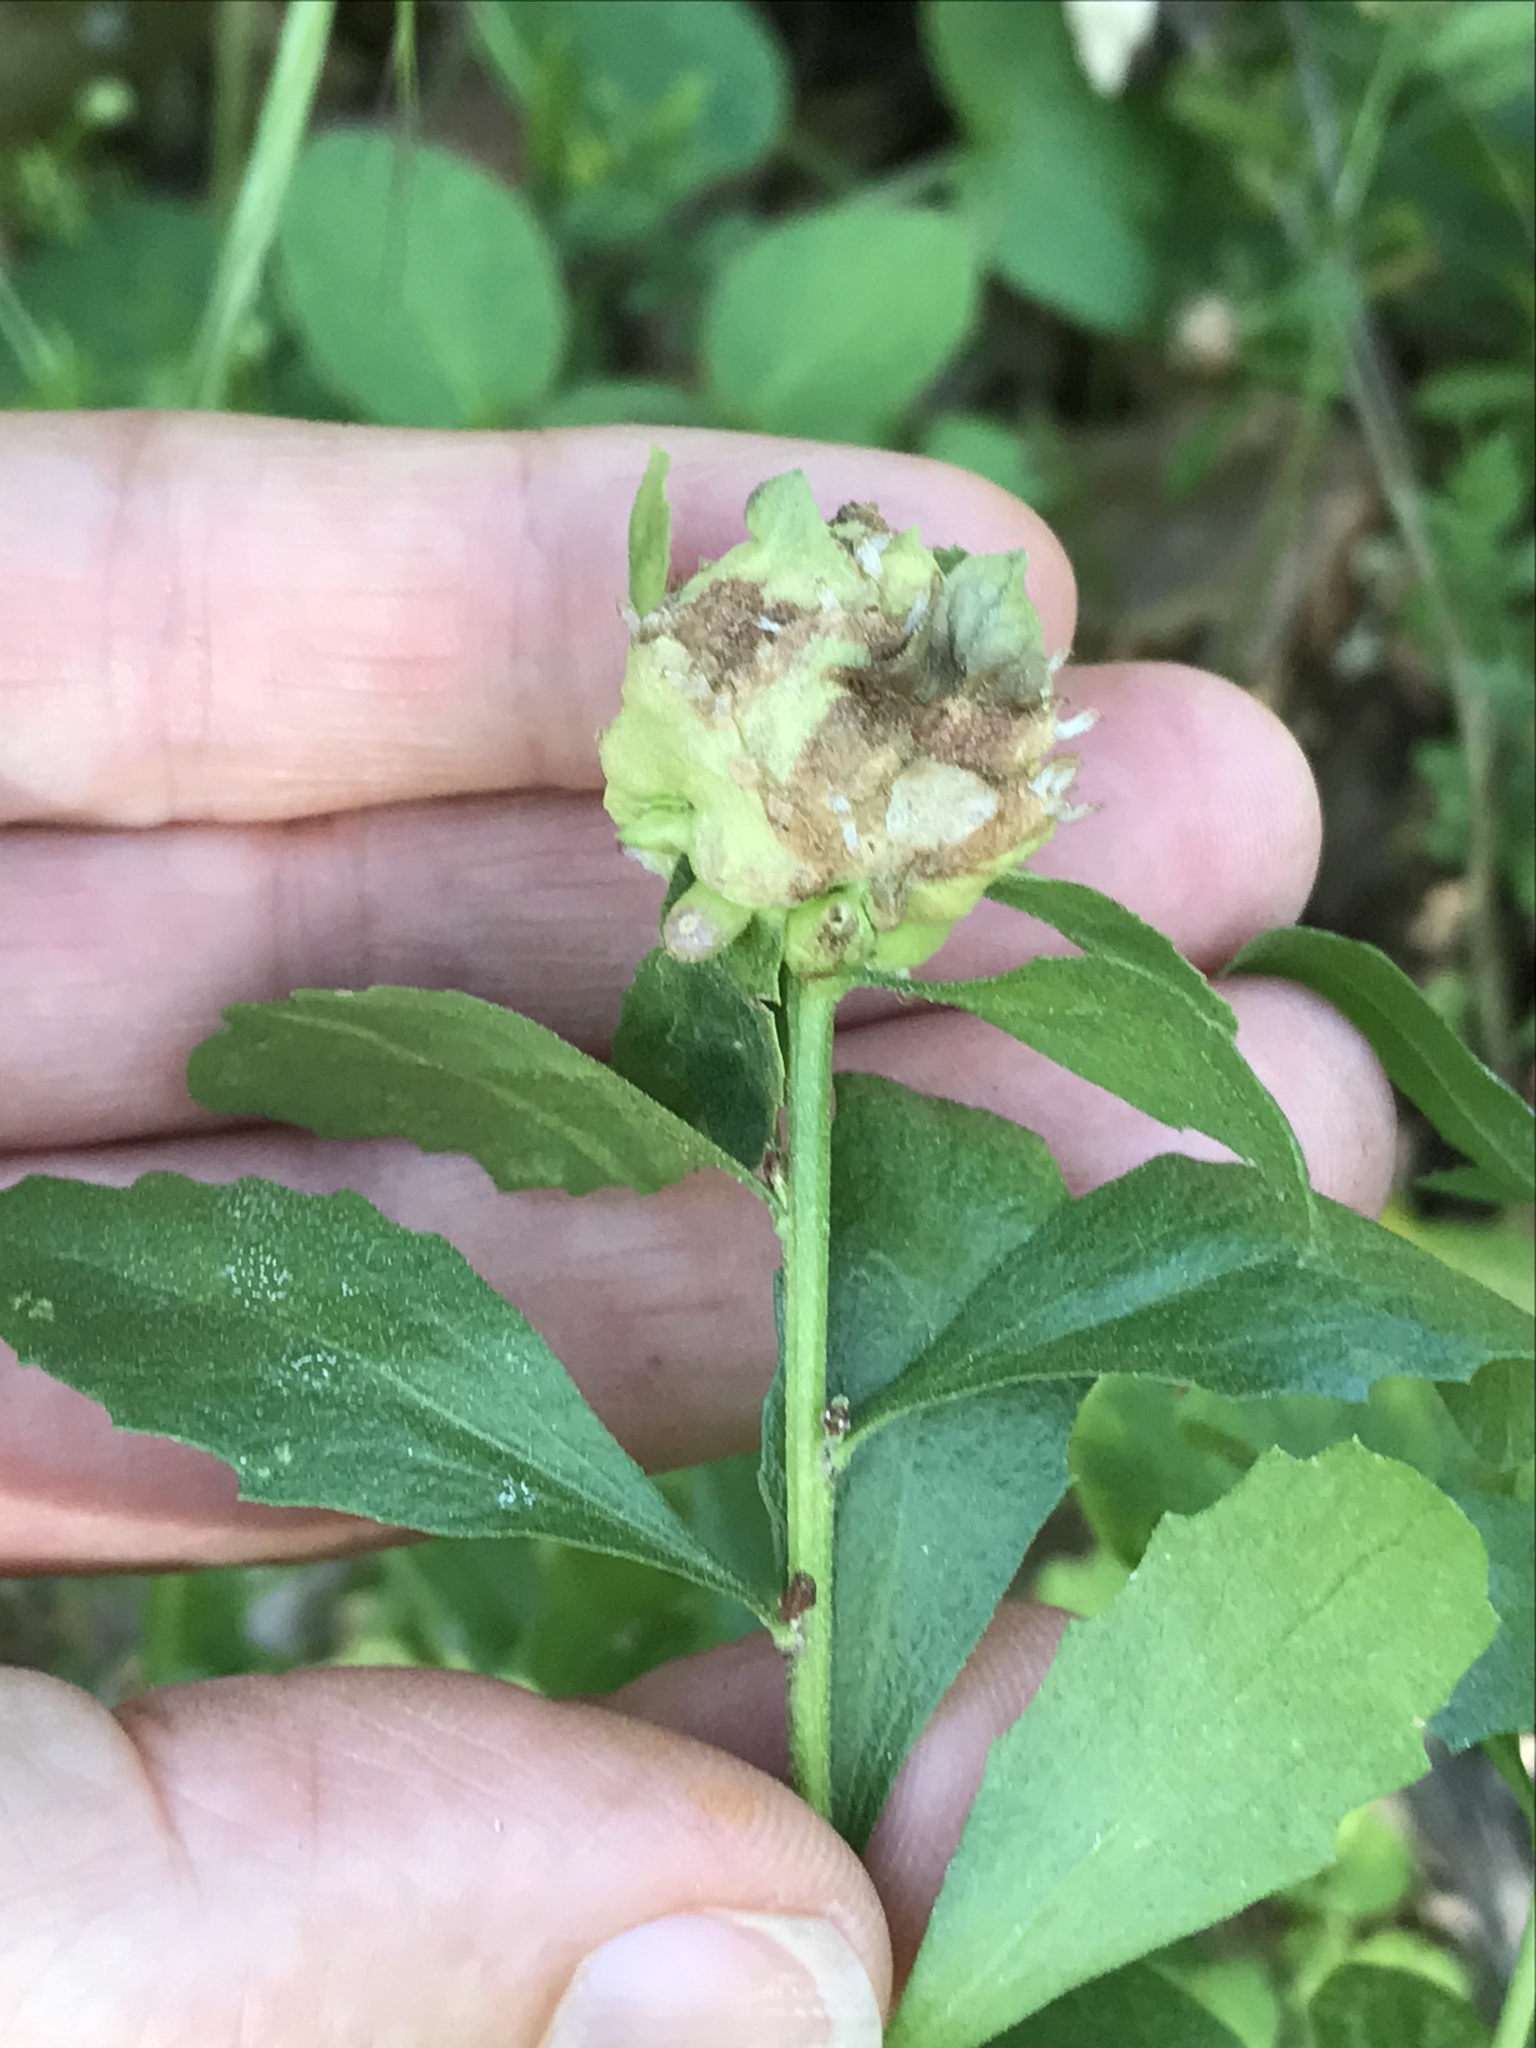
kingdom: Animalia
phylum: Arthropoda
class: Insecta
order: Diptera
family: Cecidomyiidae
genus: Rhopalomyia
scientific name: Rhopalomyia californica
